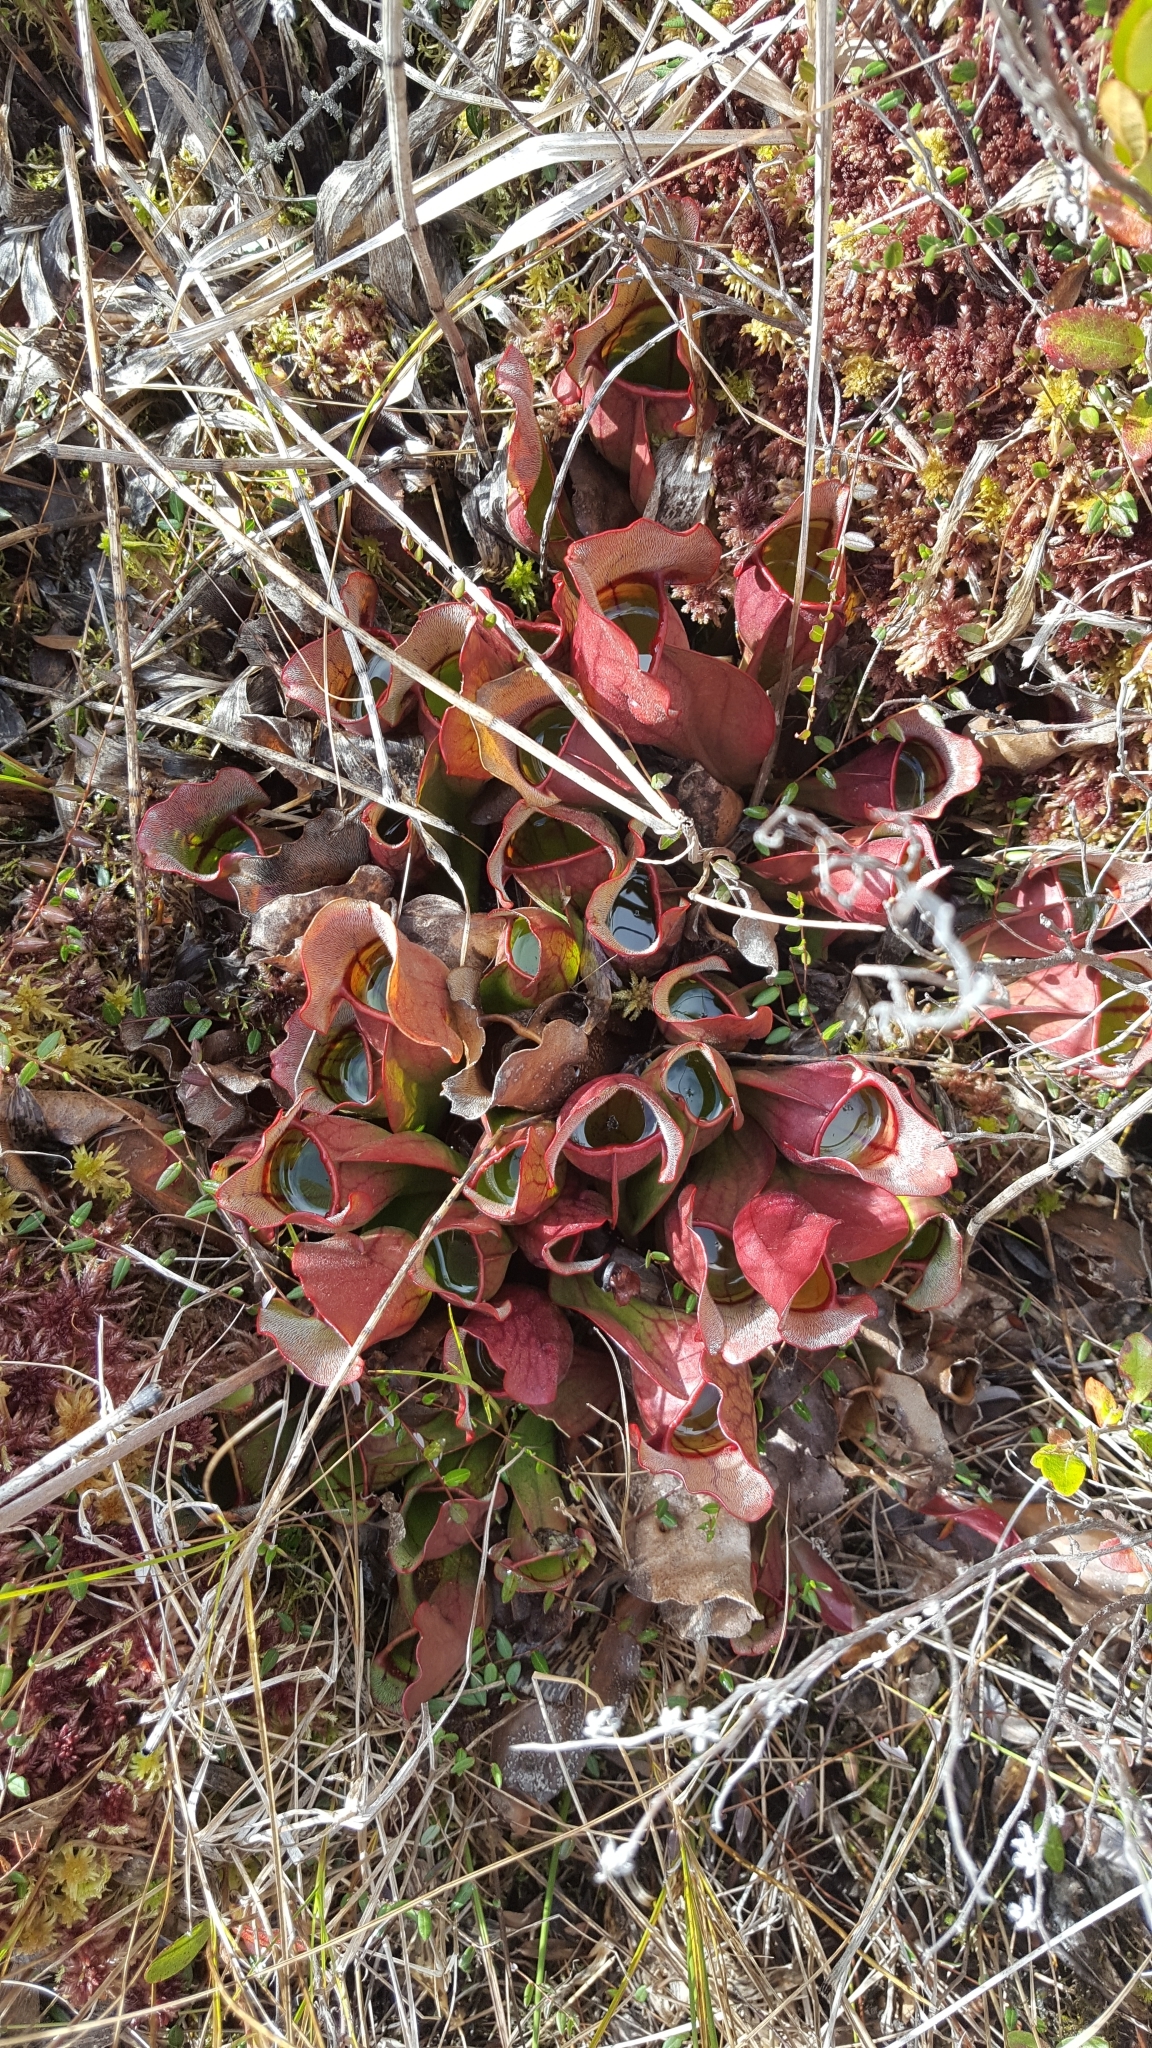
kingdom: Plantae
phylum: Tracheophyta
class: Magnoliopsida
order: Ericales
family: Sarraceniaceae
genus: Sarracenia
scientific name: Sarracenia purpurea
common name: Pitcherplant
